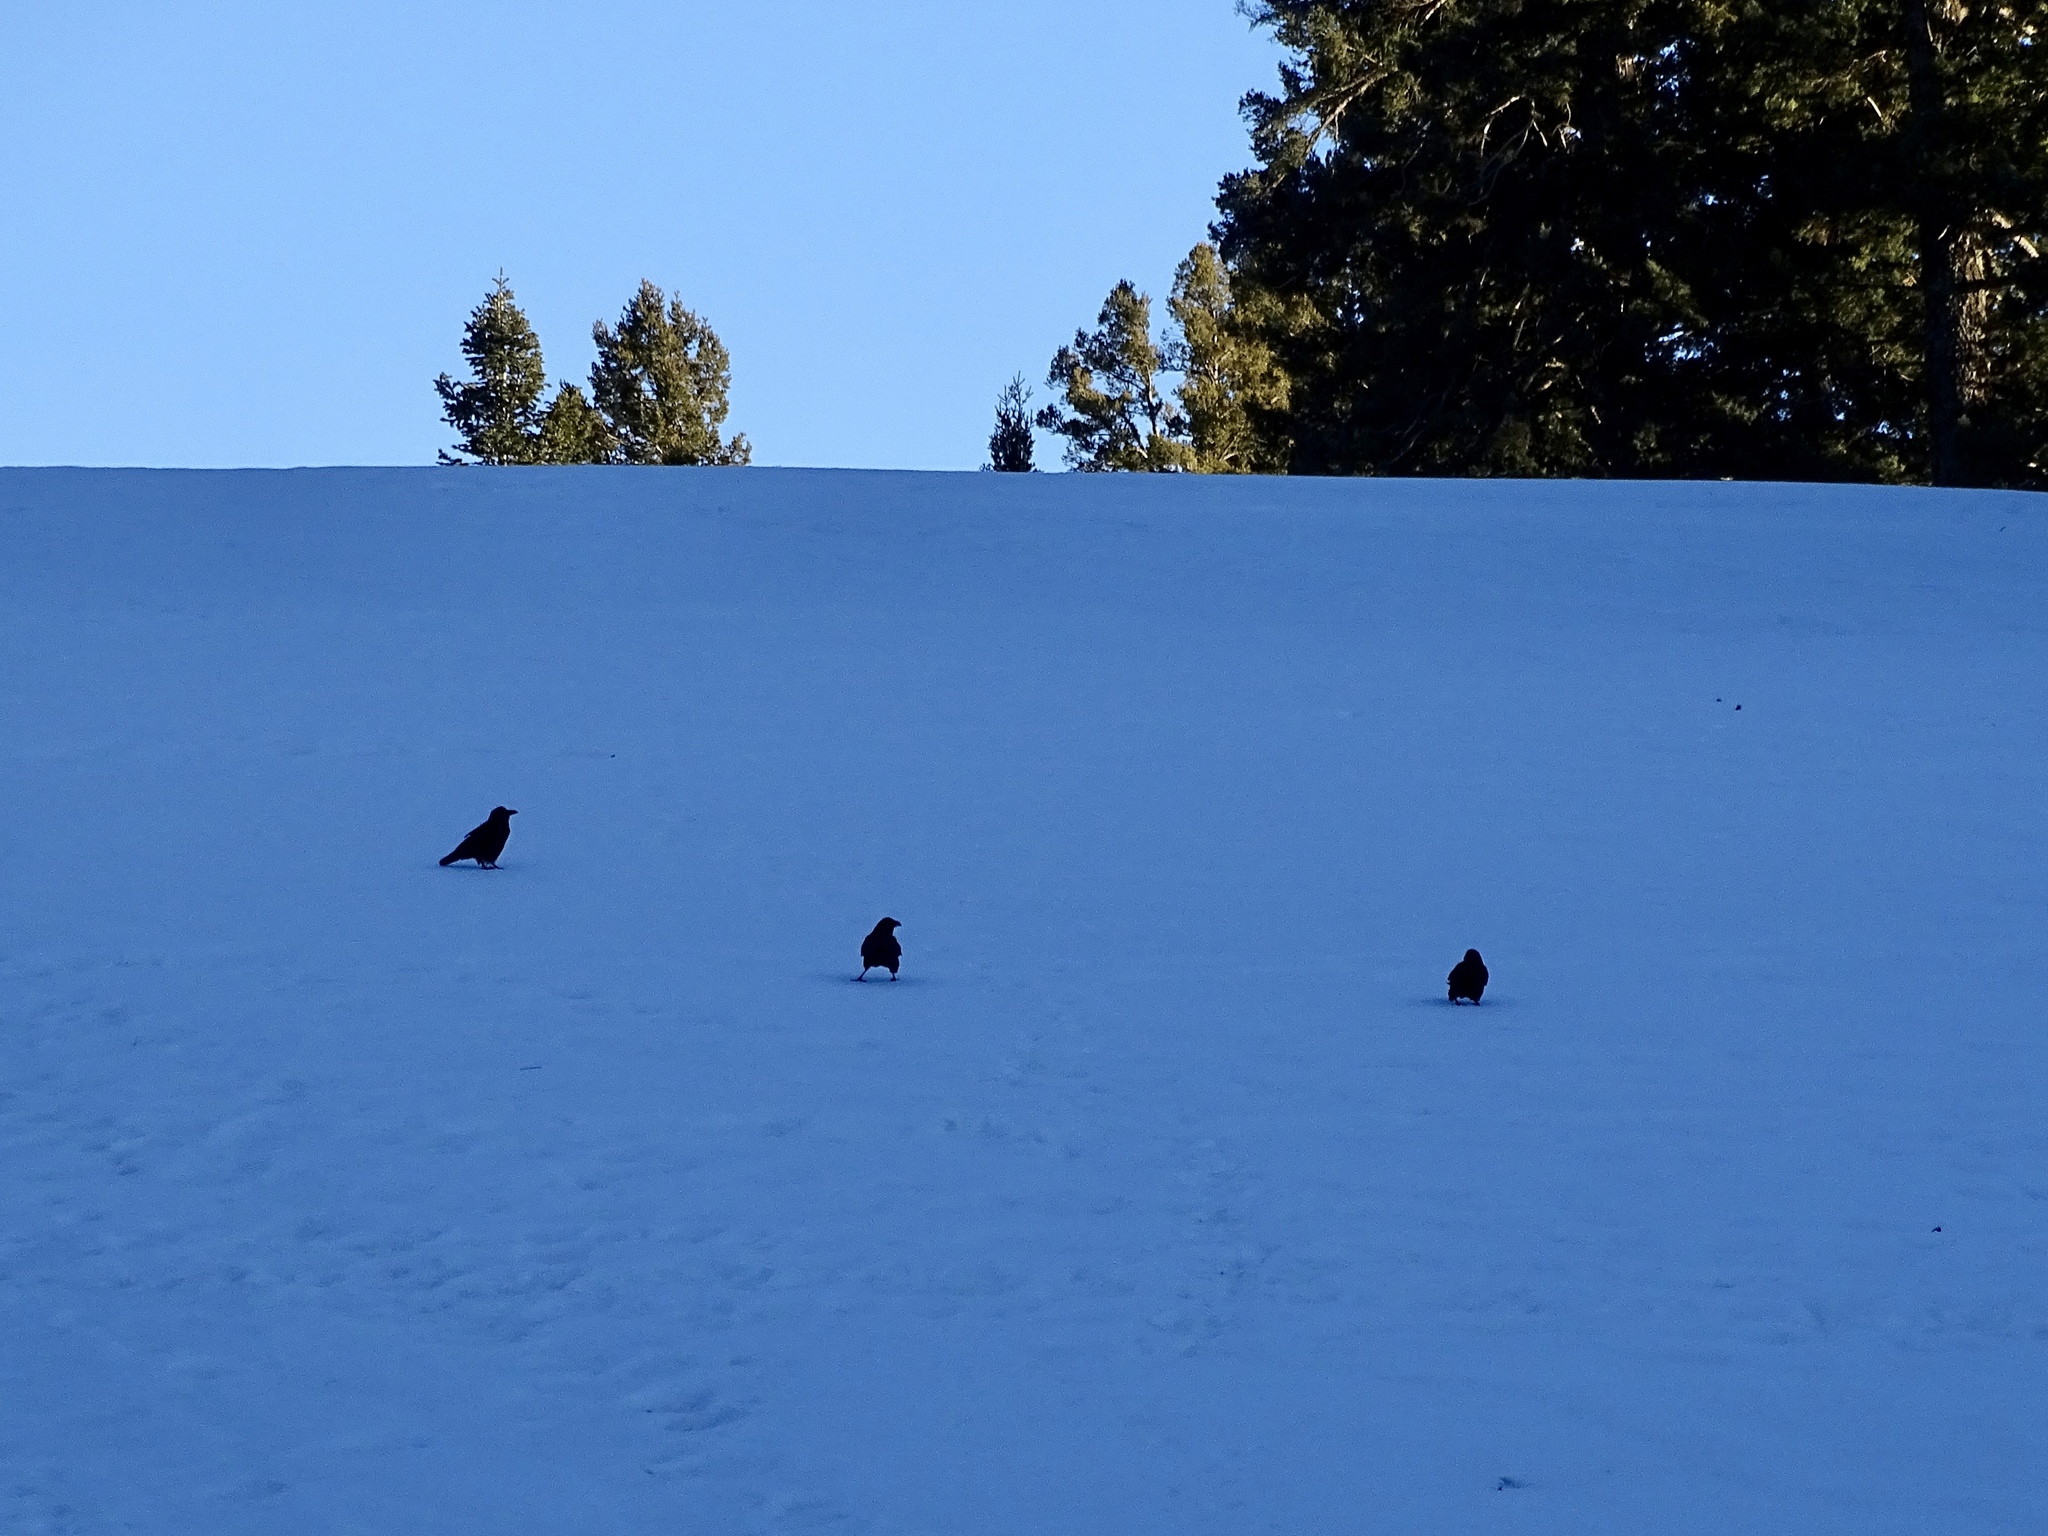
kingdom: Animalia
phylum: Chordata
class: Aves
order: Passeriformes
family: Corvidae
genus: Corvus
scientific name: Corvus corax
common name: Common raven
